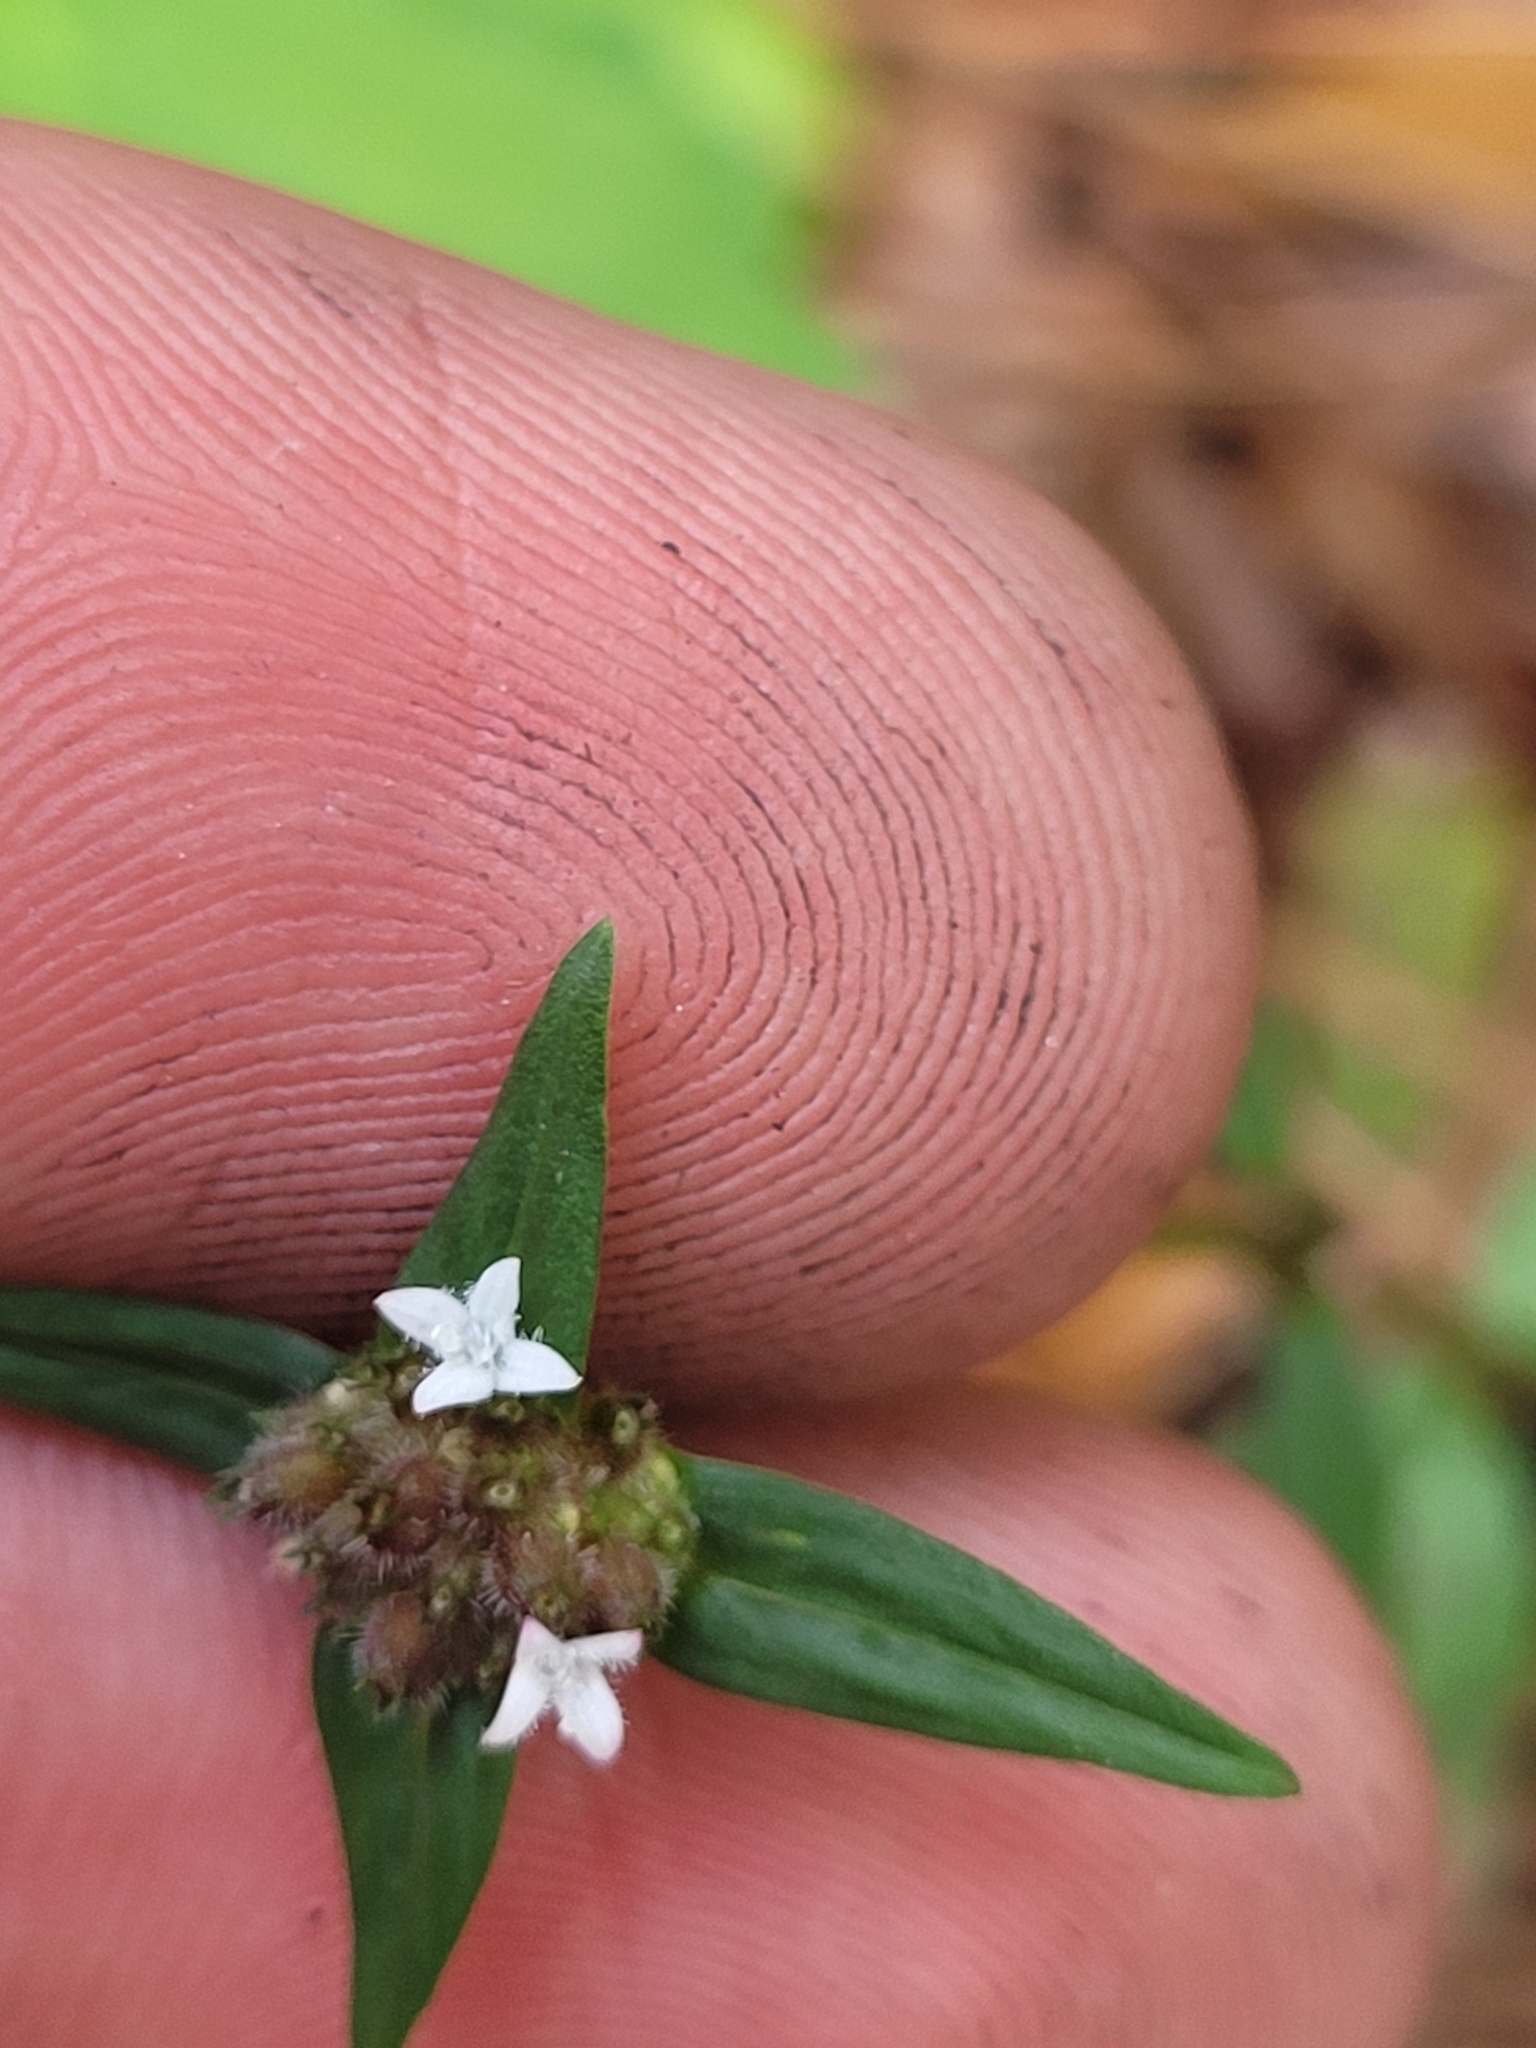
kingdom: Plantae
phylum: Tracheophyta
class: Magnoliopsida
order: Gentianales
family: Rubiaceae
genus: Spermacoce
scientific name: Spermacoce remota
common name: Woodland false buttonweed
